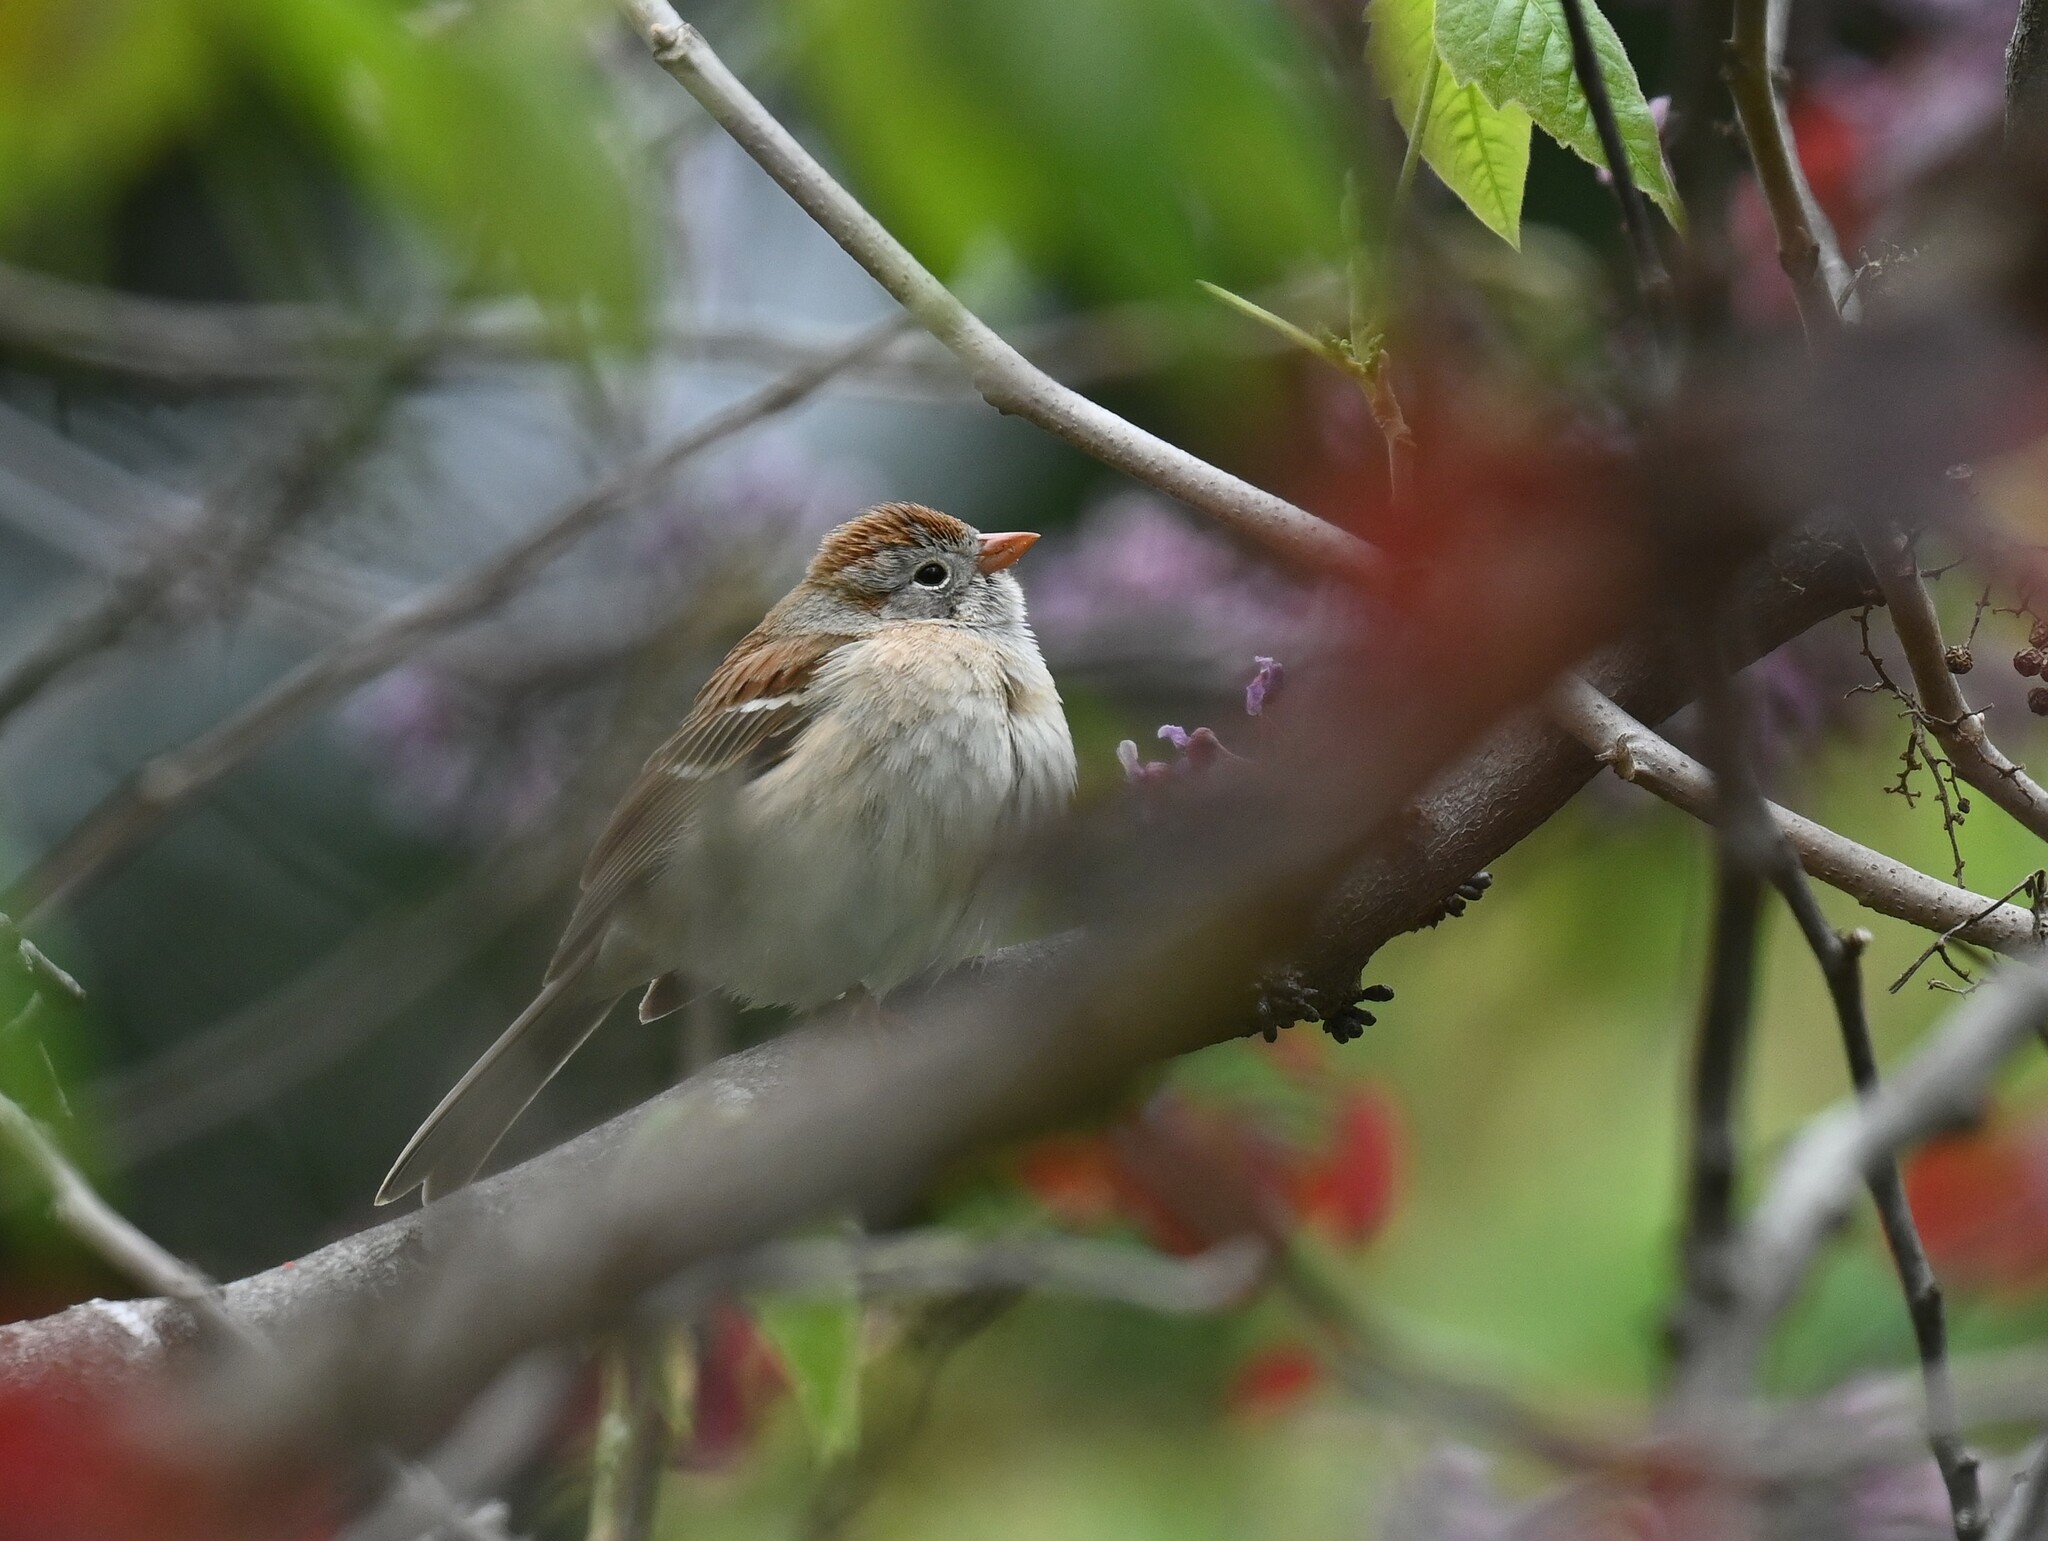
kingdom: Animalia
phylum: Chordata
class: Aves
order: Passeriformes
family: Passerellidae
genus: Spizella
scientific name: Spizella pusilla
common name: Field sparrow
